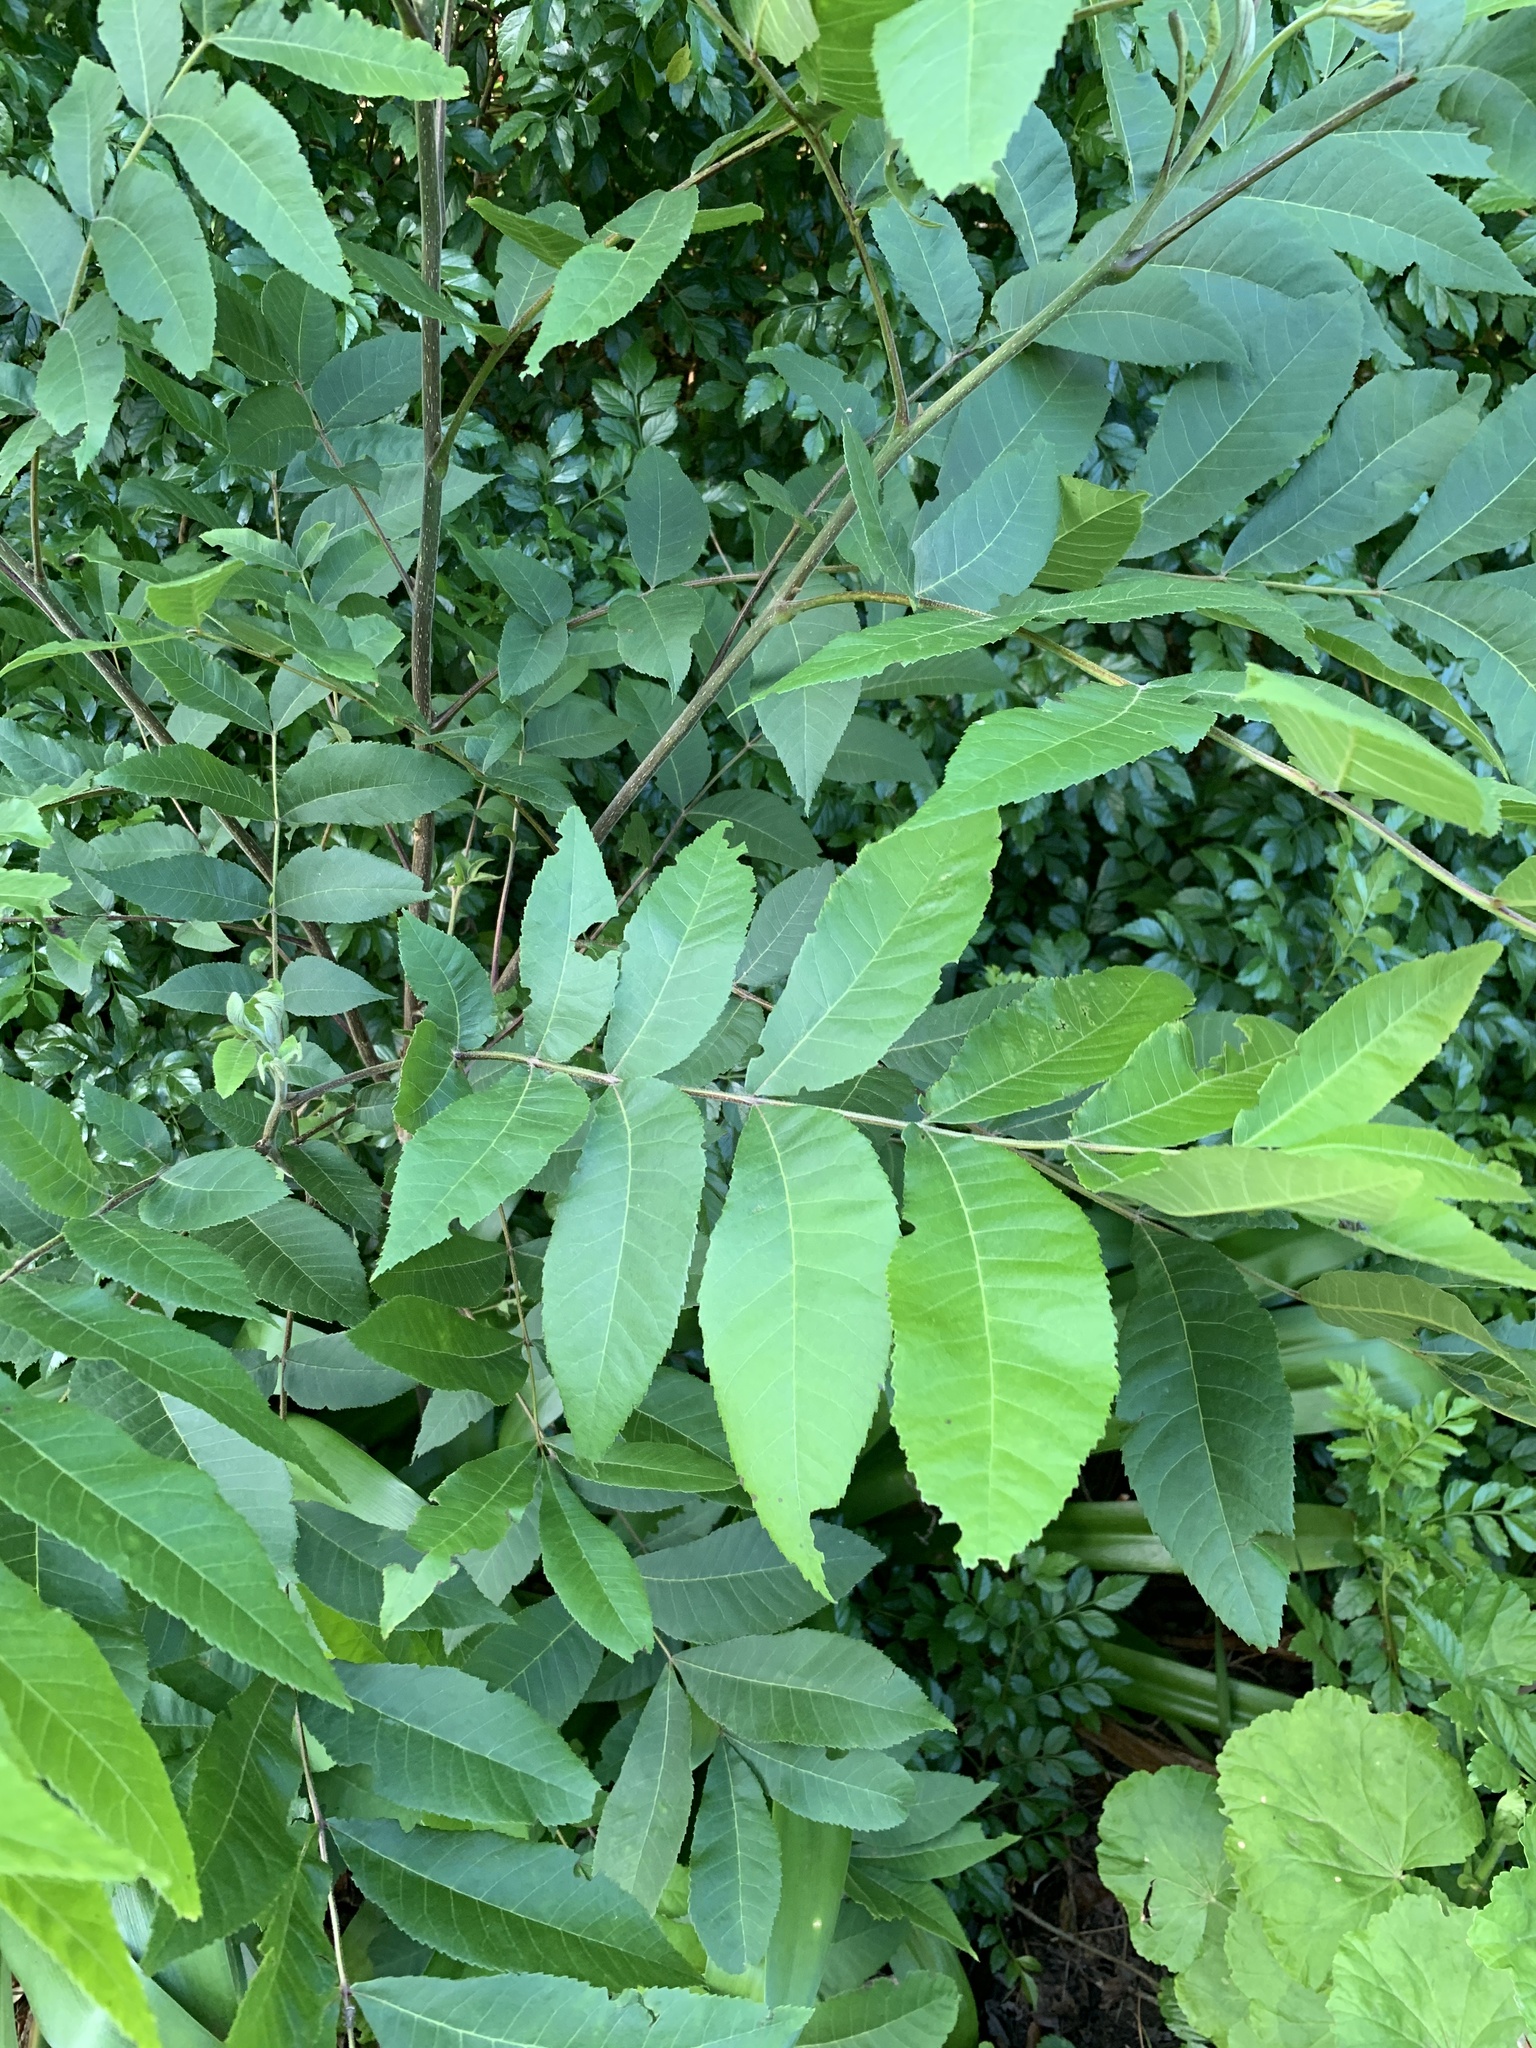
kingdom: Plantae
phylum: Tracheophyta
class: Magnoliopsida
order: Fagales
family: Juglandaceae
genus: Carya
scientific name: Carya illinoinensis
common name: Pecan
